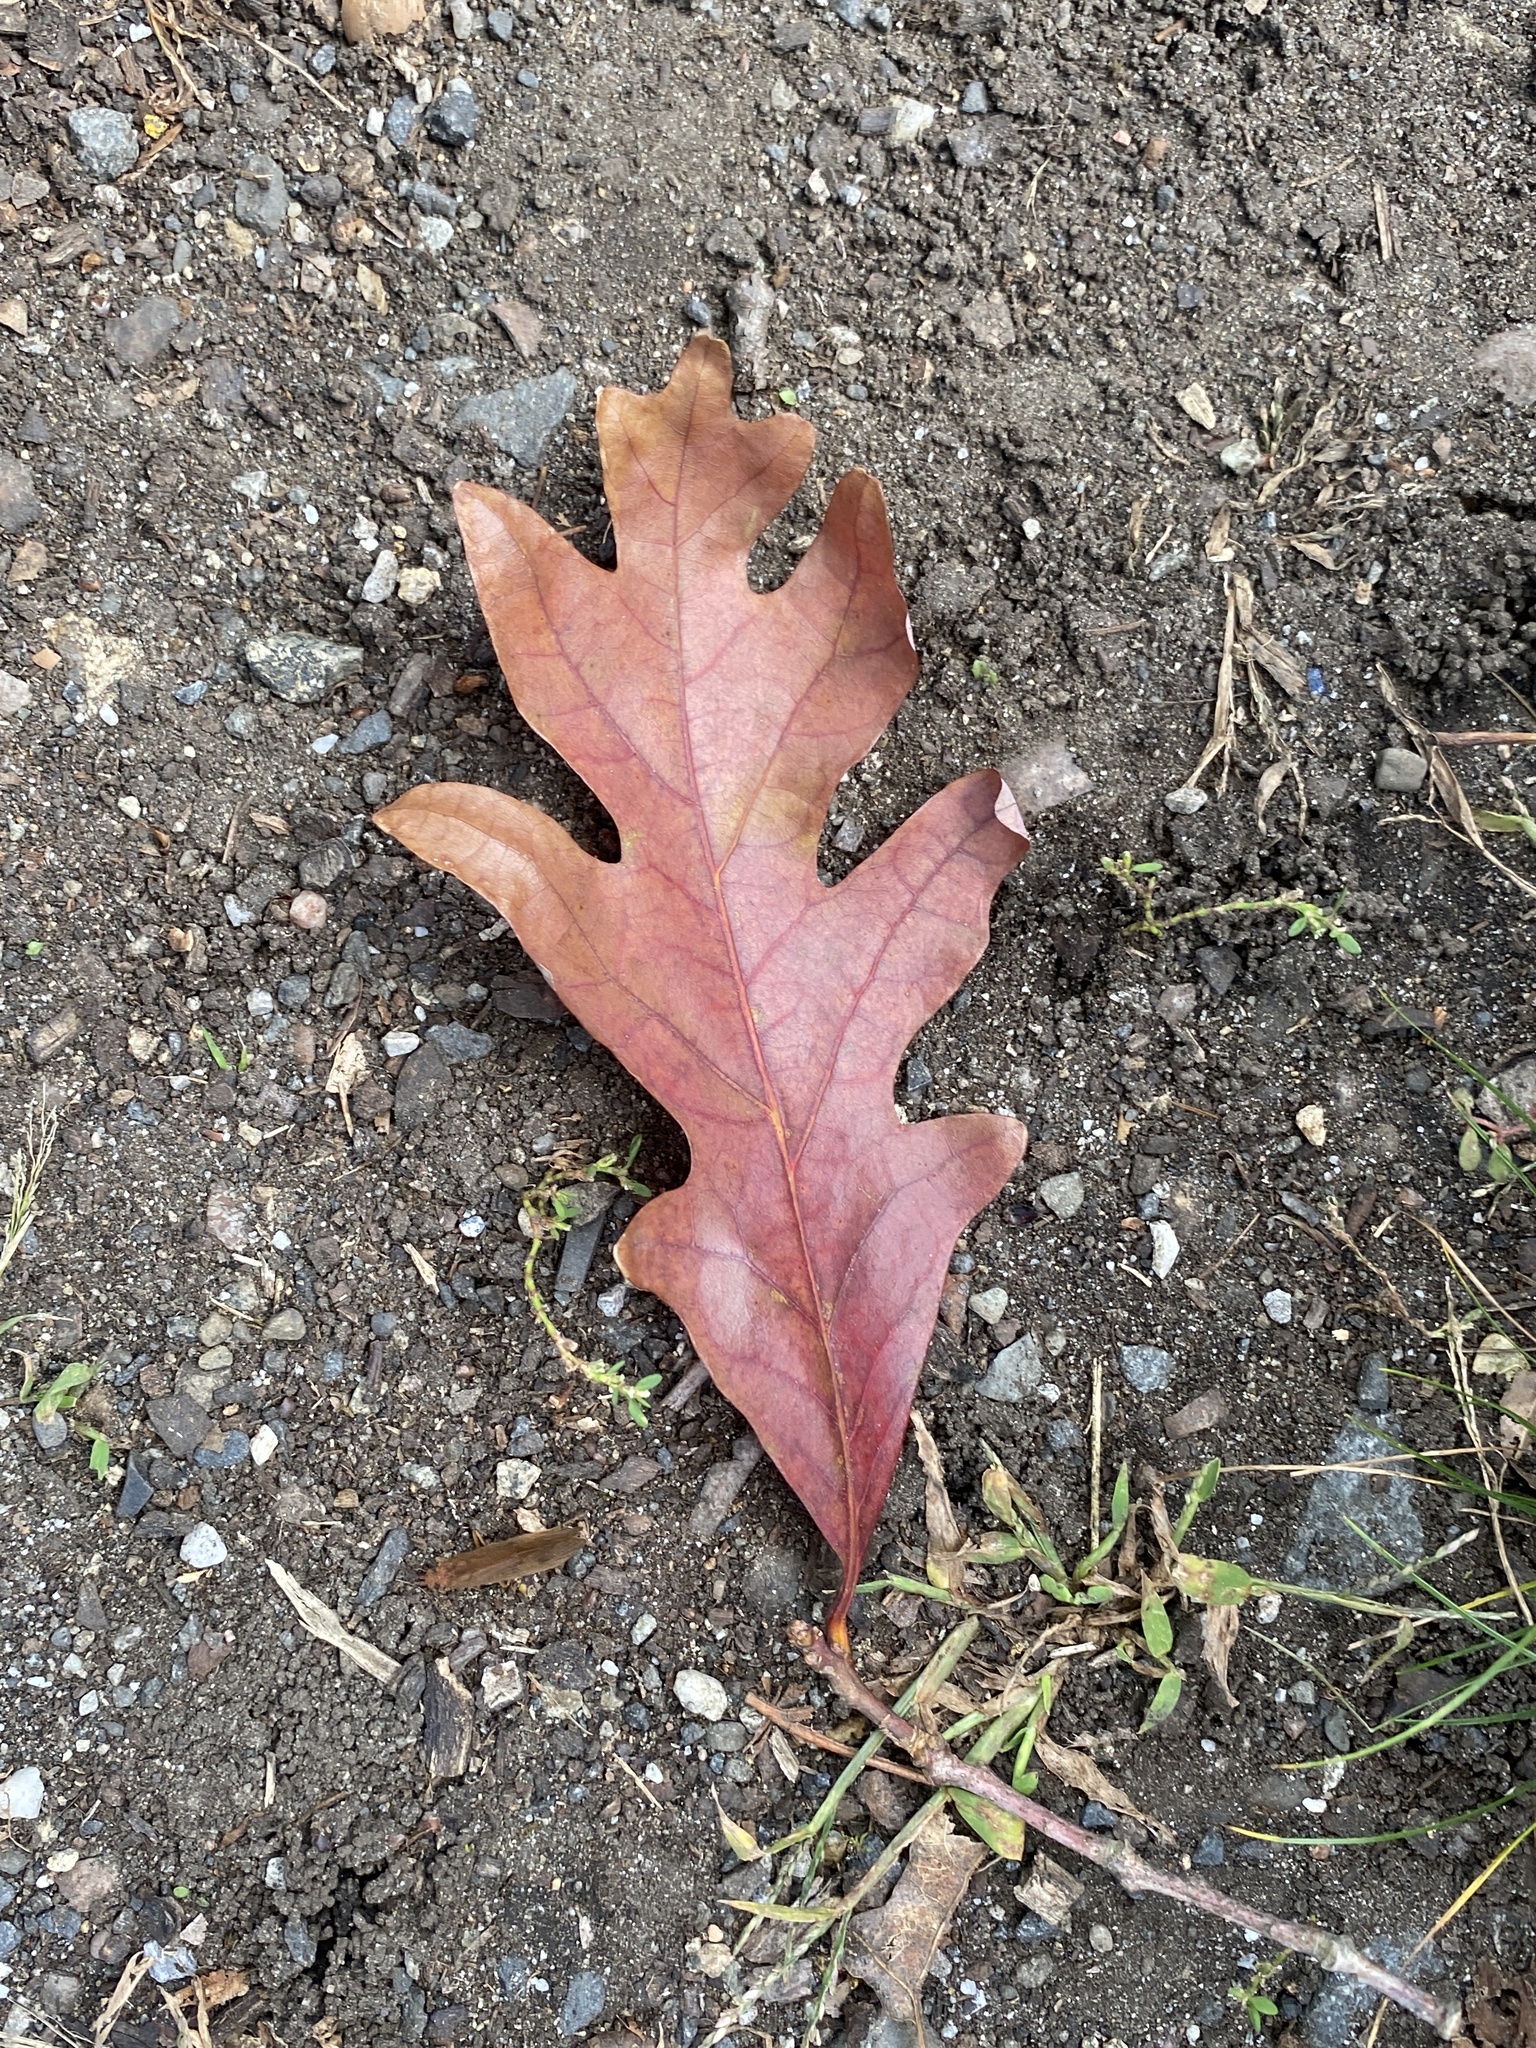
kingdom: Plantae
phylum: Tracheophyta
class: Magnoliopsida
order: Fagales
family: Fagaceae
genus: Quercus
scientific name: Quercus alba
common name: White oak
